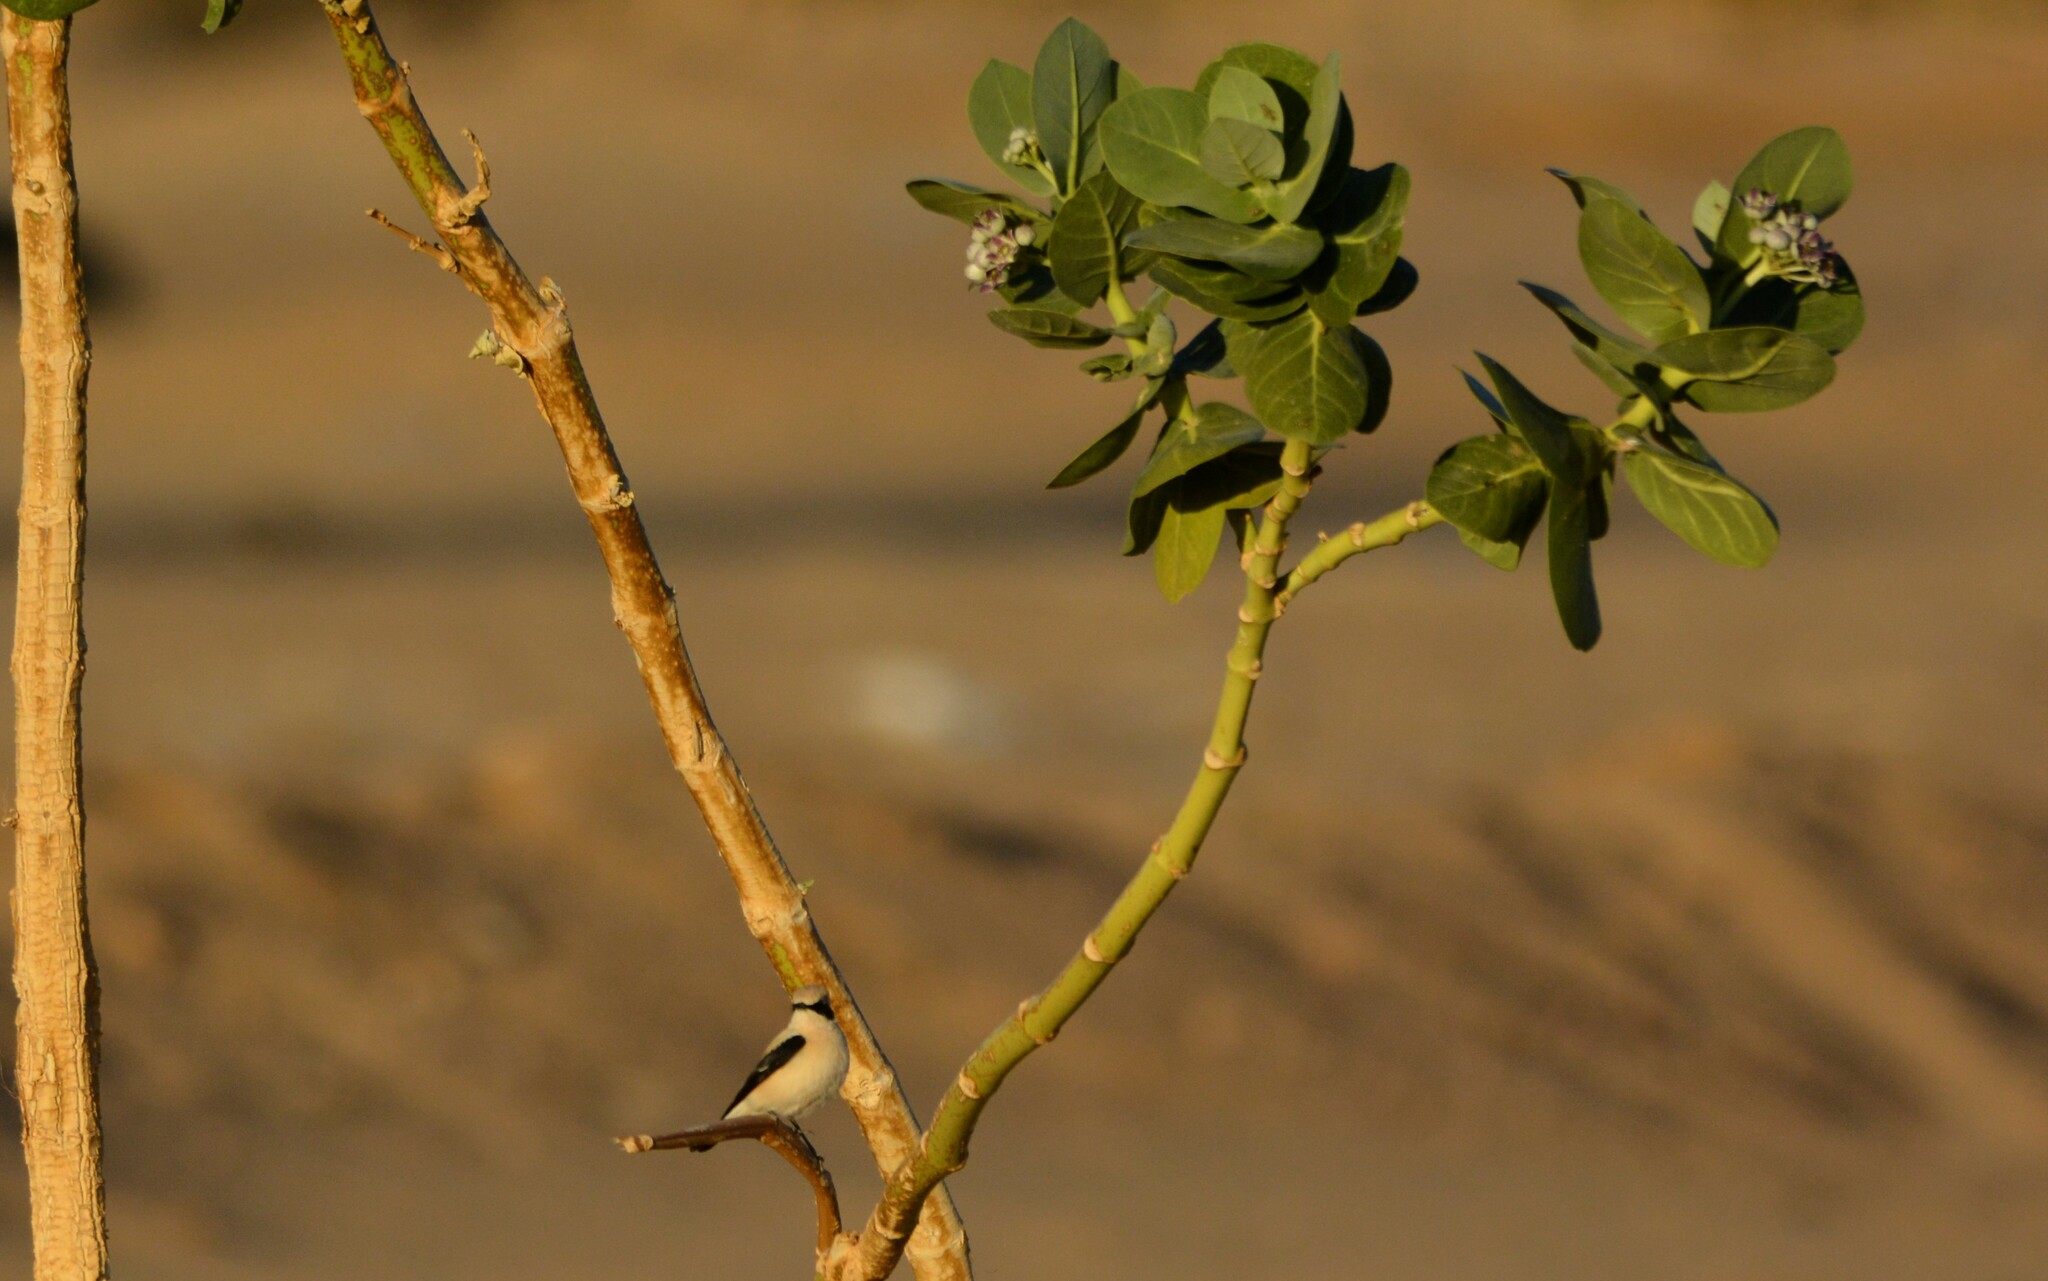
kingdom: Animalia
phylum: Chordata
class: Aves
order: Passeriformes
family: Muscicapidae
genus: Oenanthe
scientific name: Oenanthe hispanica
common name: Black-eared wheatear
